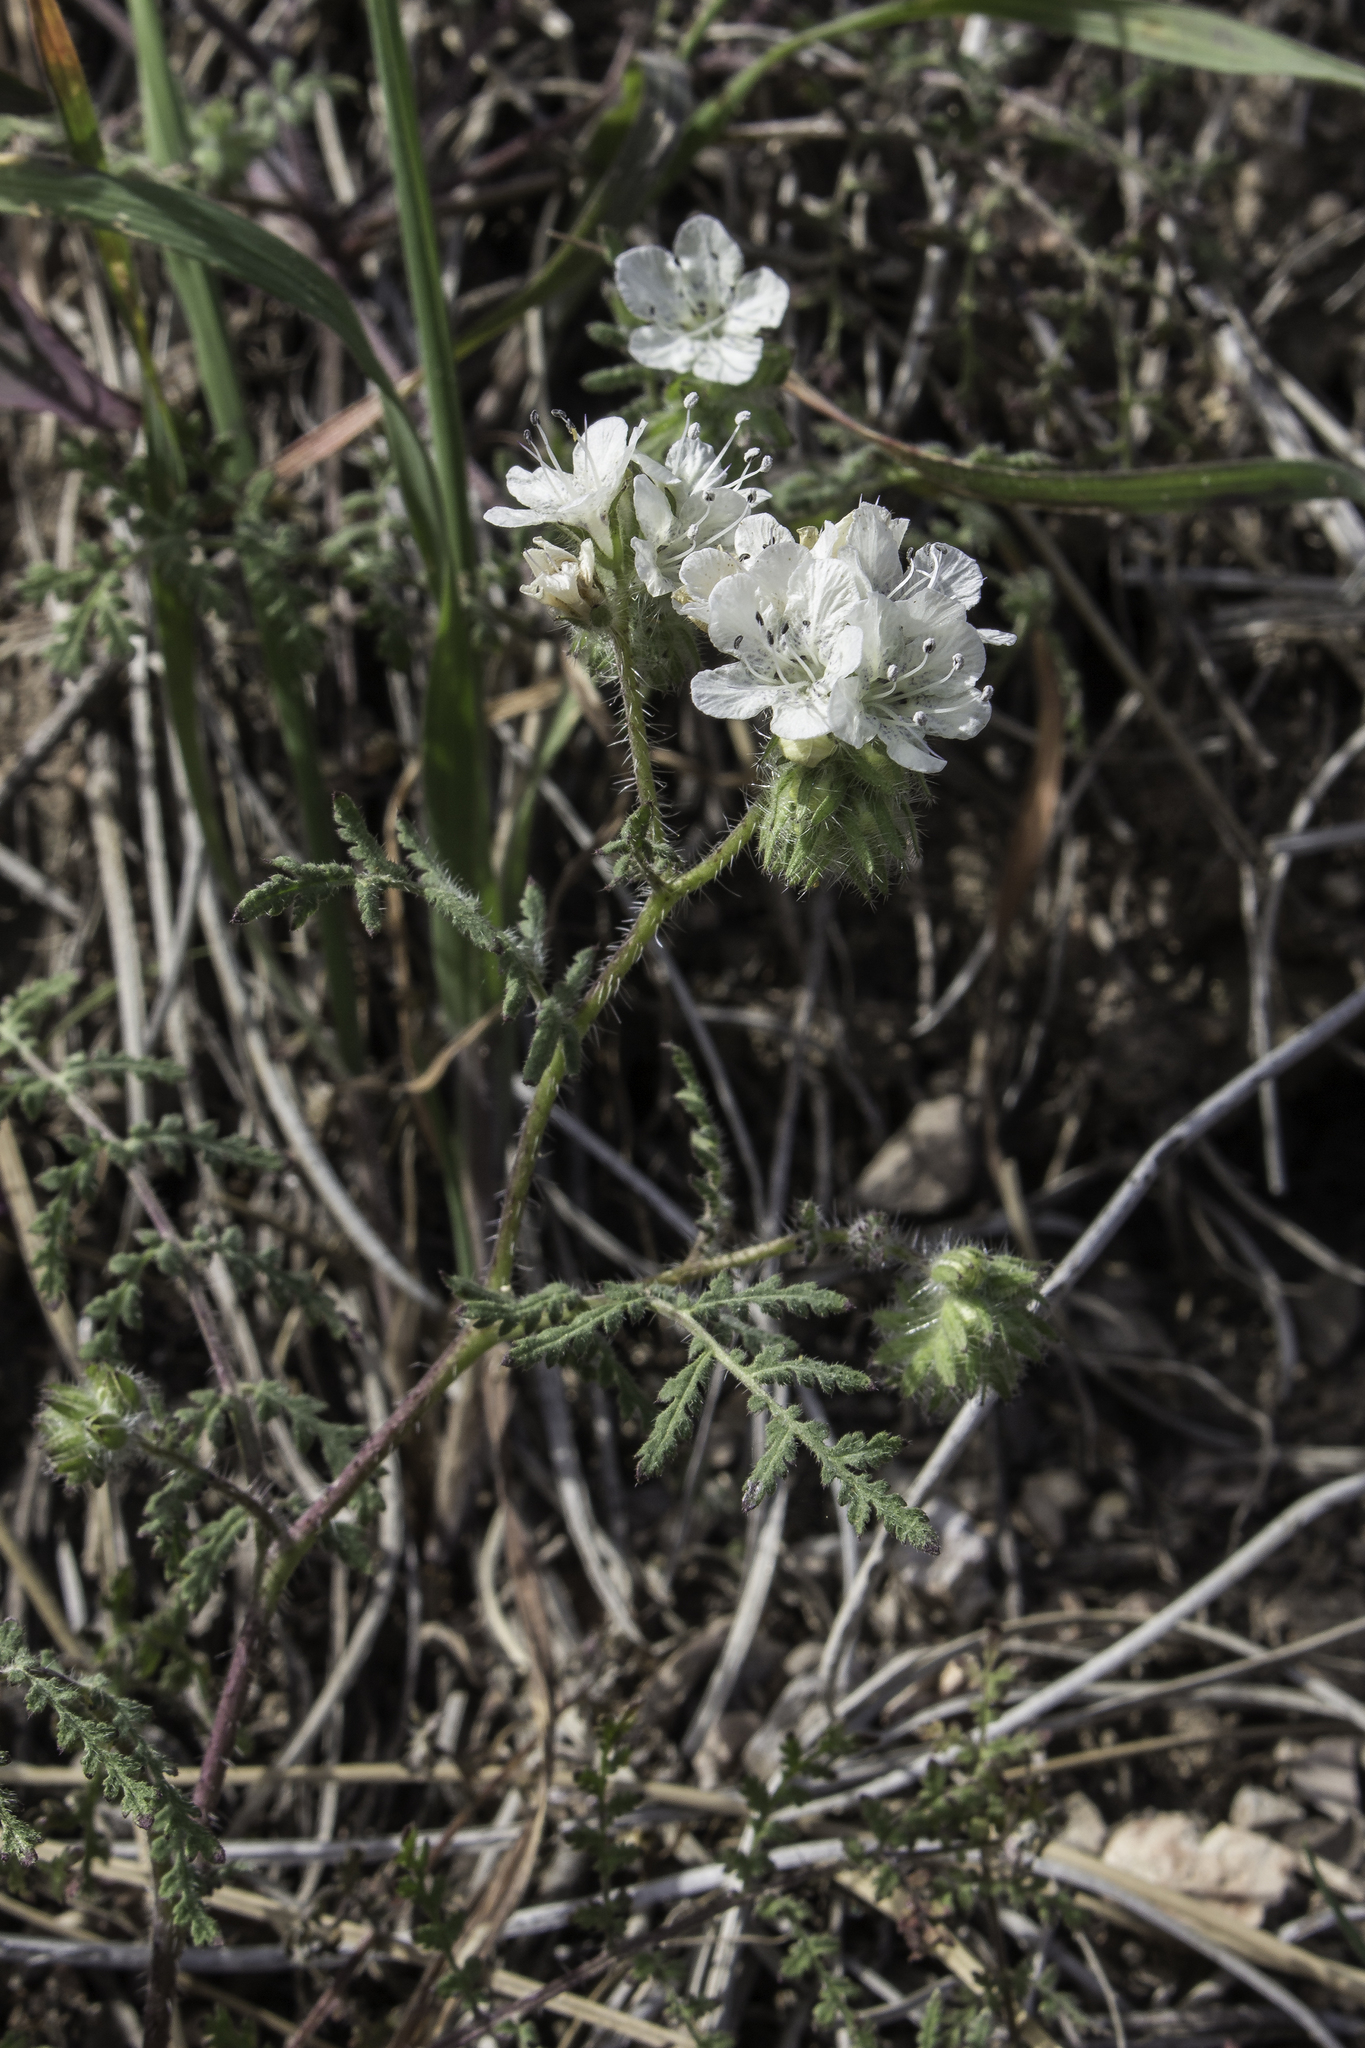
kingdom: Plantae
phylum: Tracheophyta
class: Magnoliopsida
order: Boraginales
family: Hydrophyllaceae
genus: Phacelia
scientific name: Phacelia distans
